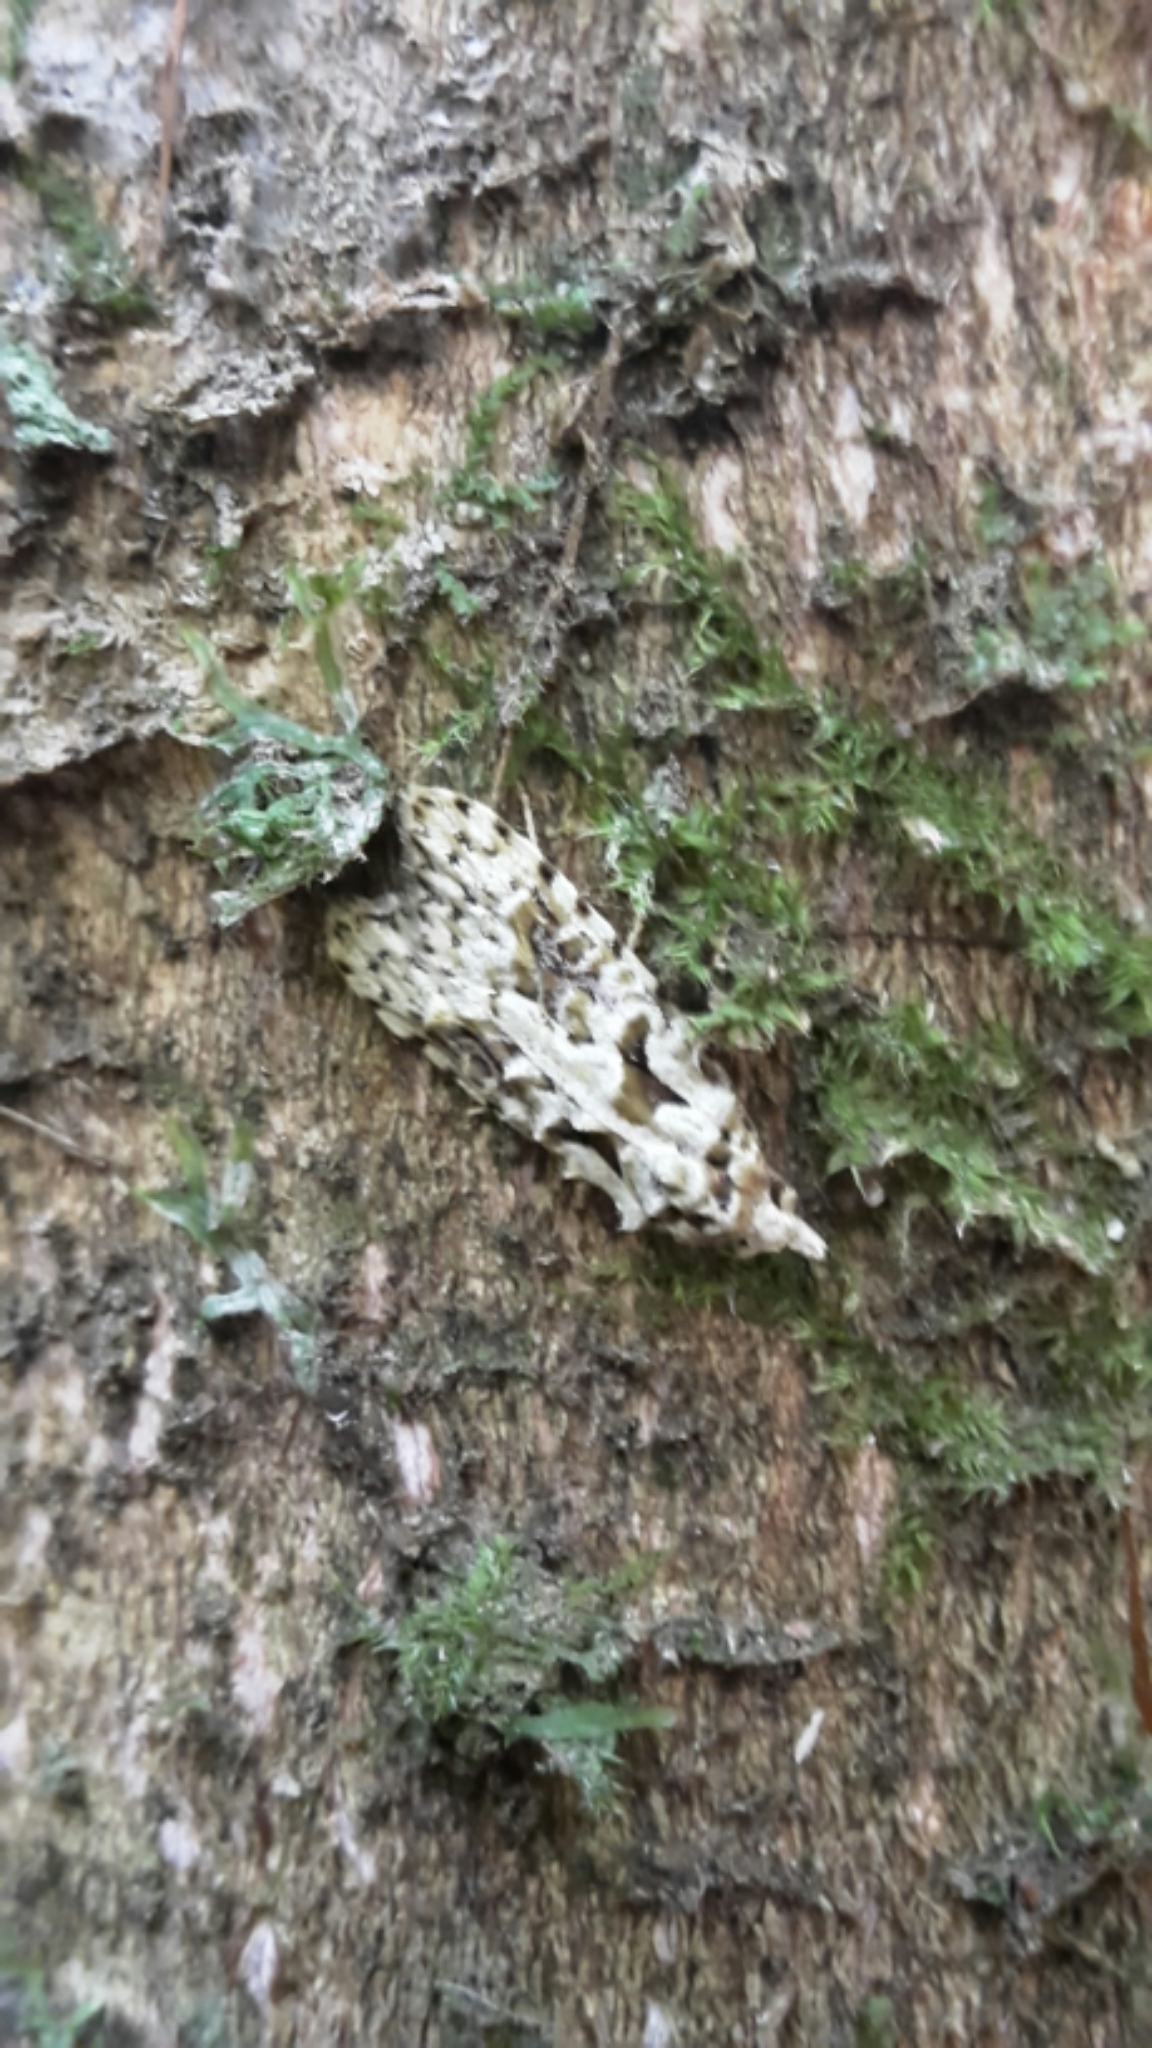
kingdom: Animalia
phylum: Arthropoda
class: Insecta
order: Lepidoptera
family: Carposinidae
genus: Carposina
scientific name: Carposina Heterocrossa eriphylla
